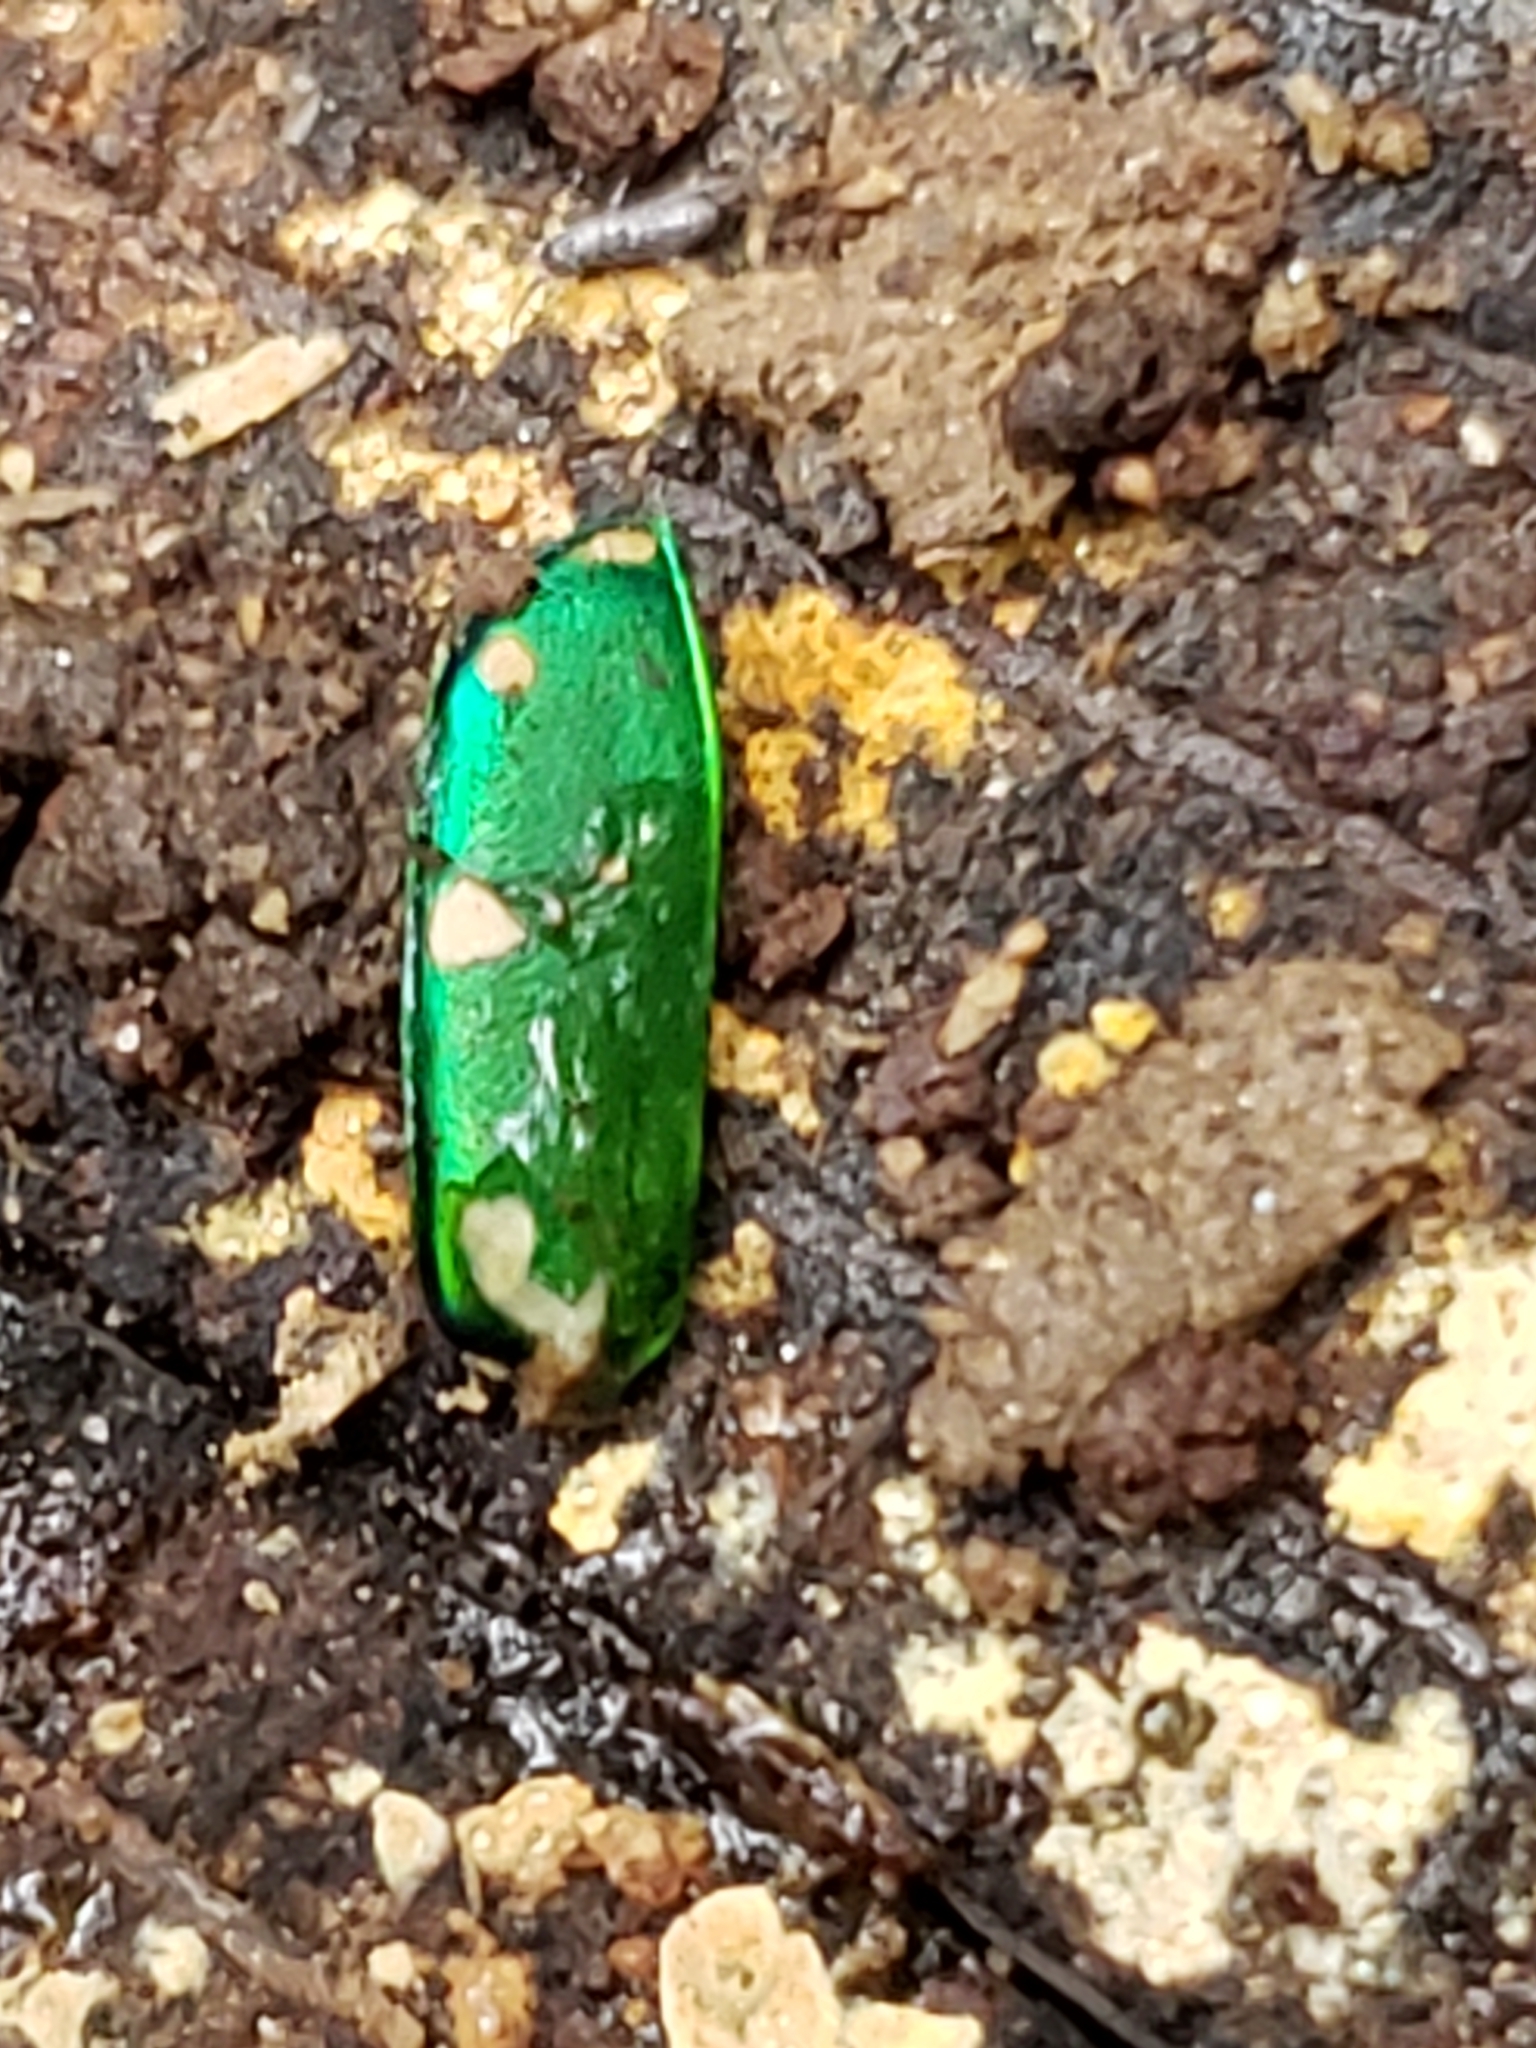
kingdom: Animalia
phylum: Arthropoda
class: Insecta
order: Coleoptera
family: Carabidae
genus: Cicindela
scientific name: Cicindela sexguttata
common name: Six-spotted tiger beetle
